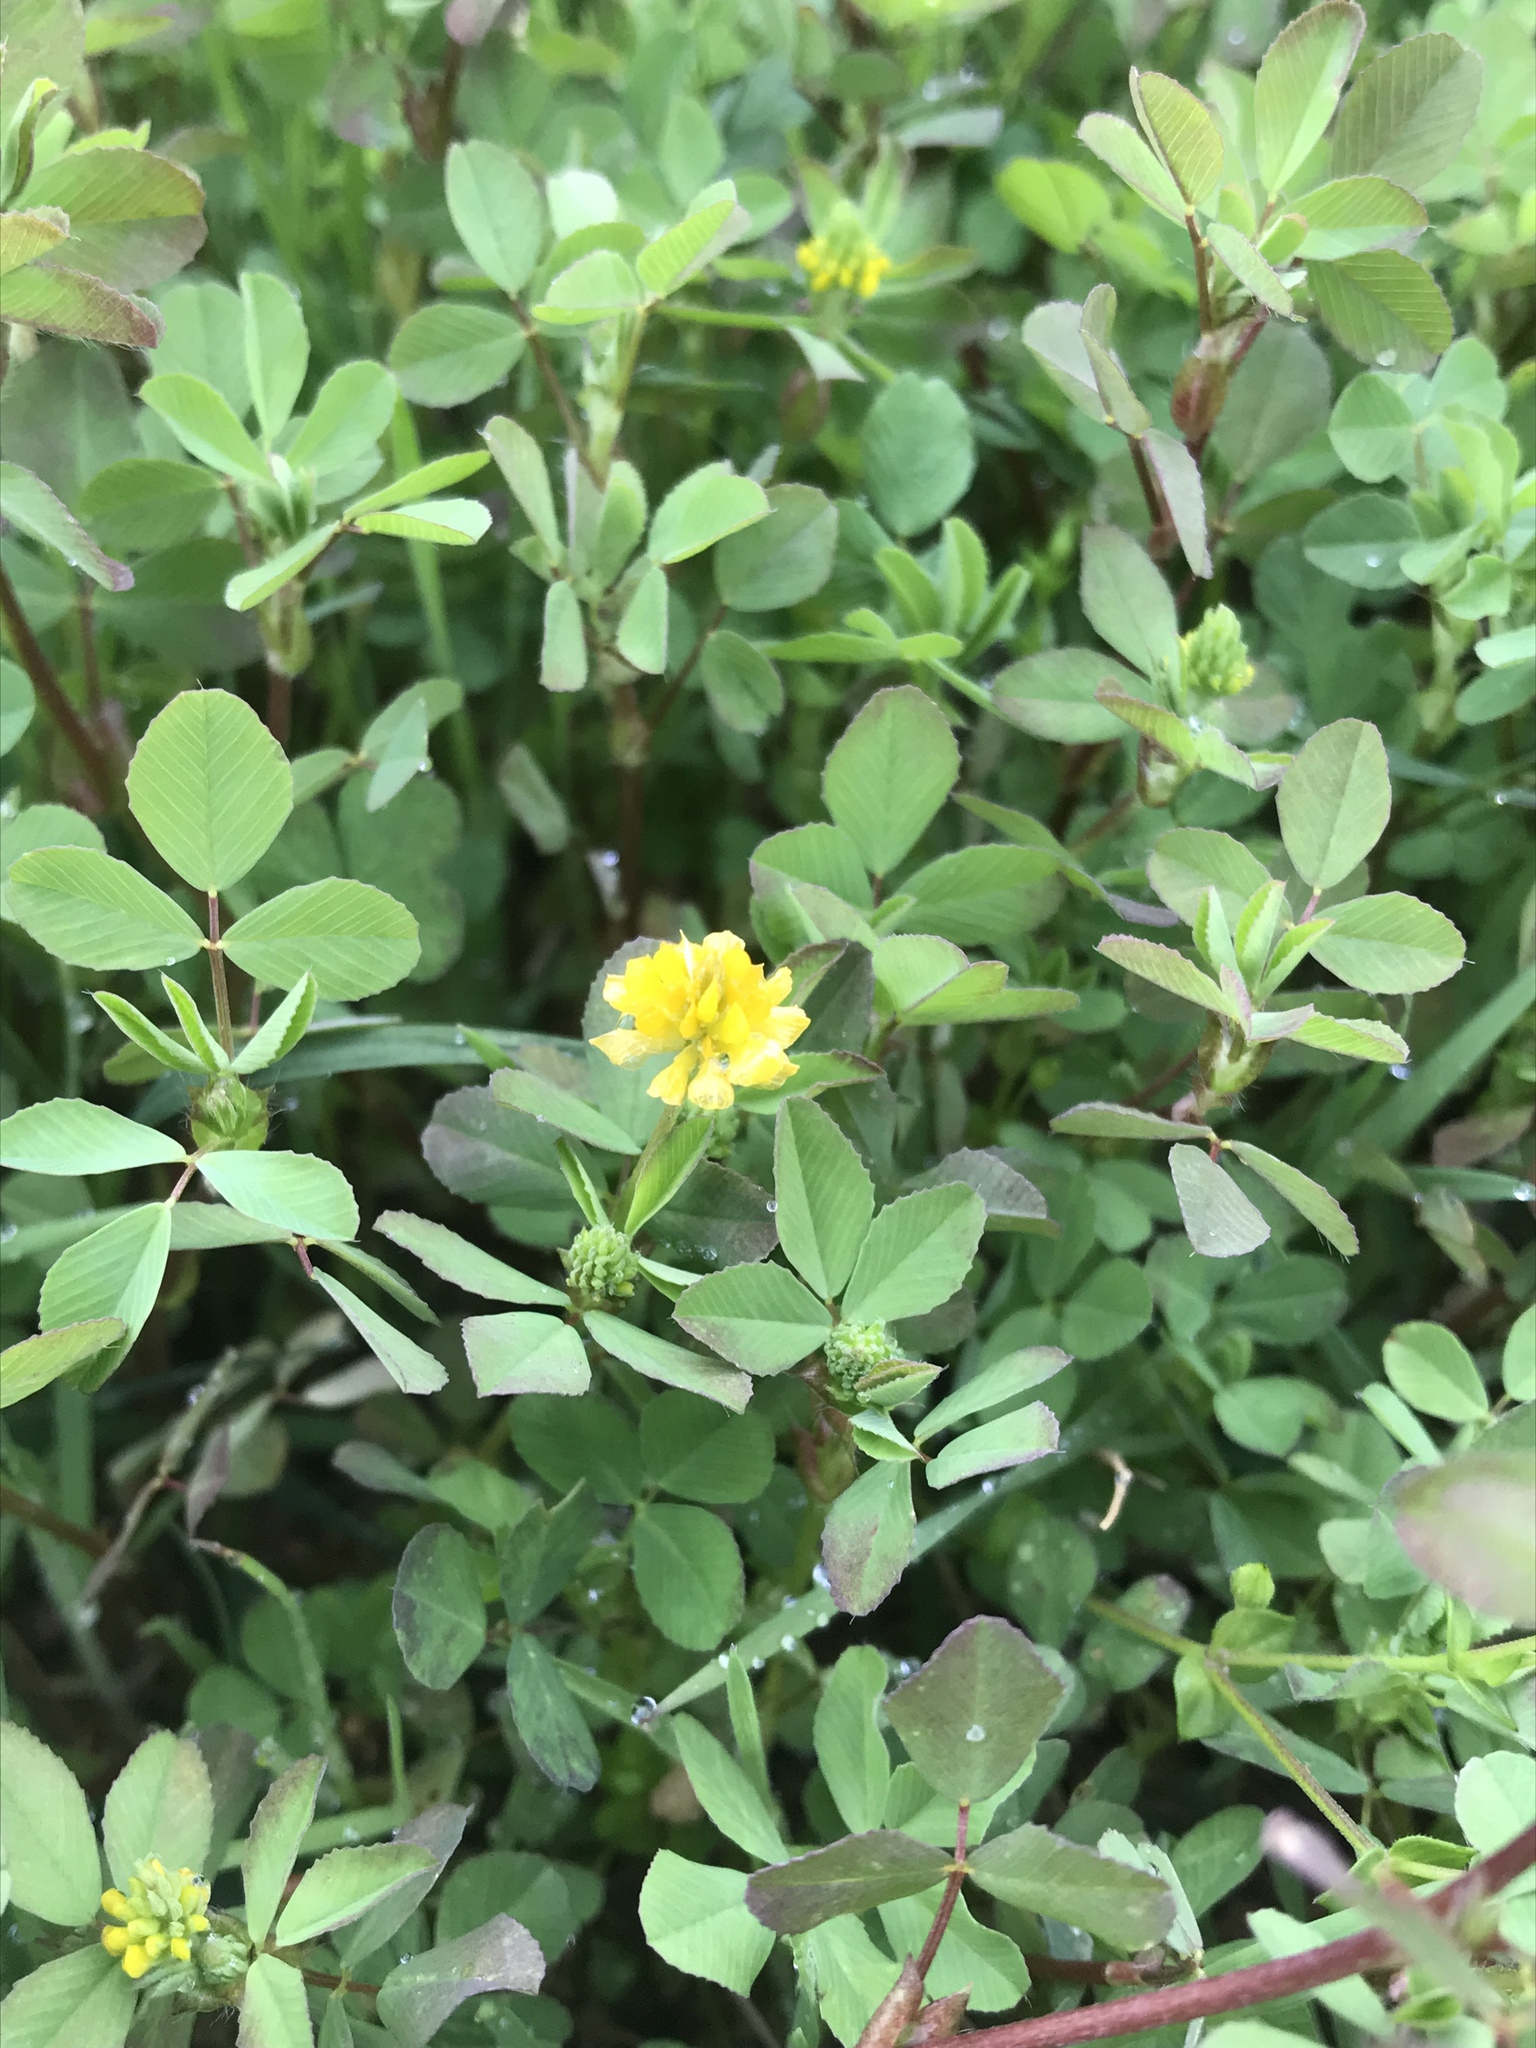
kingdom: Plantae
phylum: Tracheophyta
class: Magnoliopsida
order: Fabales
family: Fabaceae
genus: Trifolium
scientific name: Trifolium campestre
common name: Field clover
